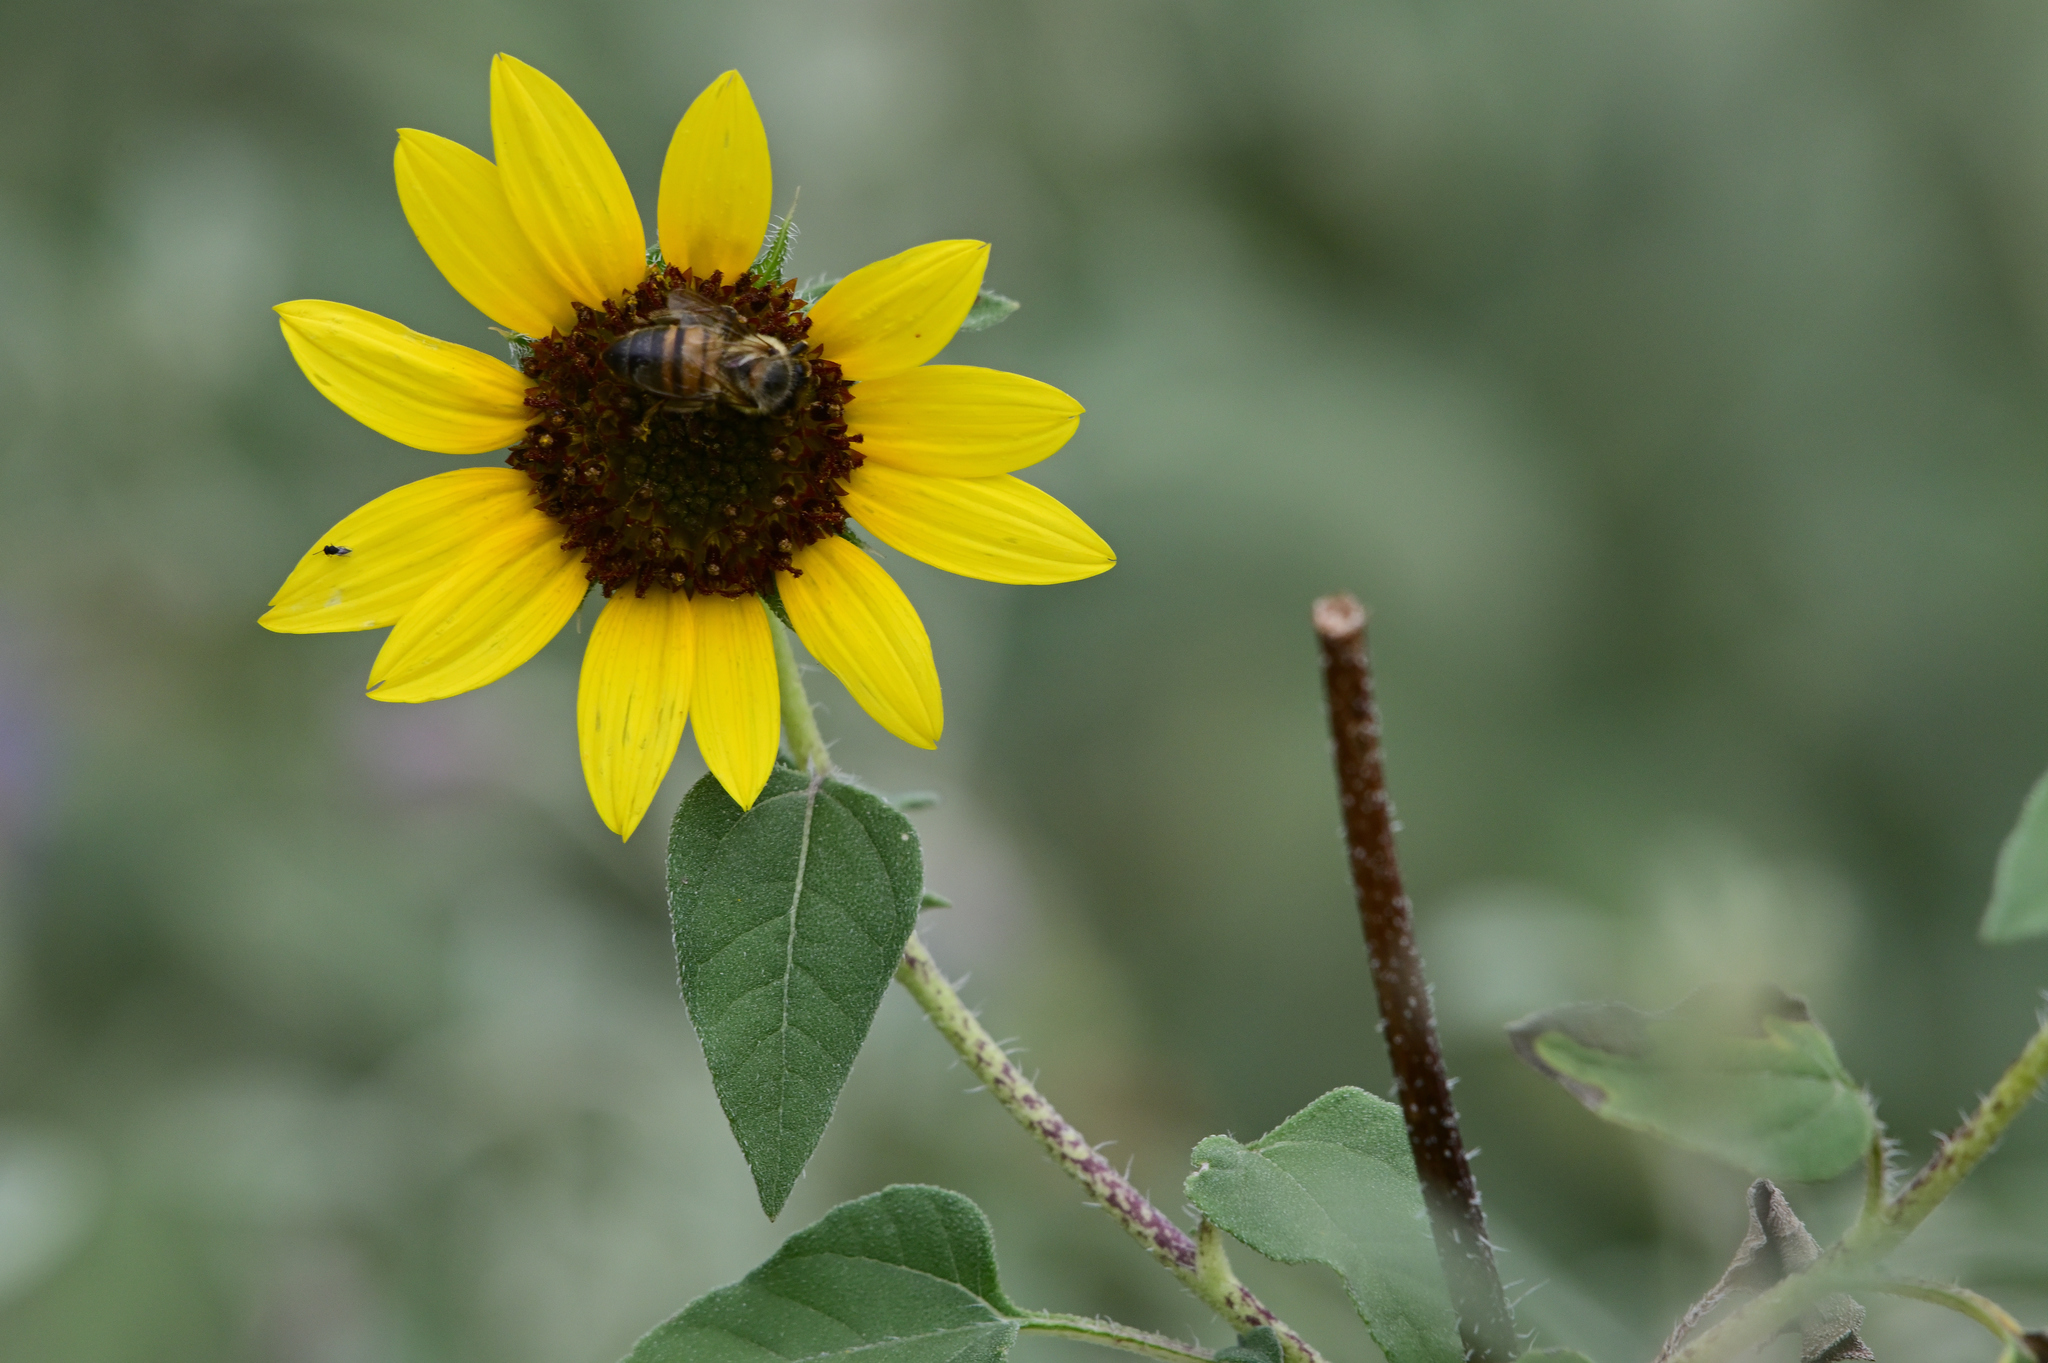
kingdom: Plantae
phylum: Tracheophyta
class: Magnoliopsida
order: Asterales
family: Asteraceae
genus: Helianthus
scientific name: Helianthus annuus
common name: Sunflower
